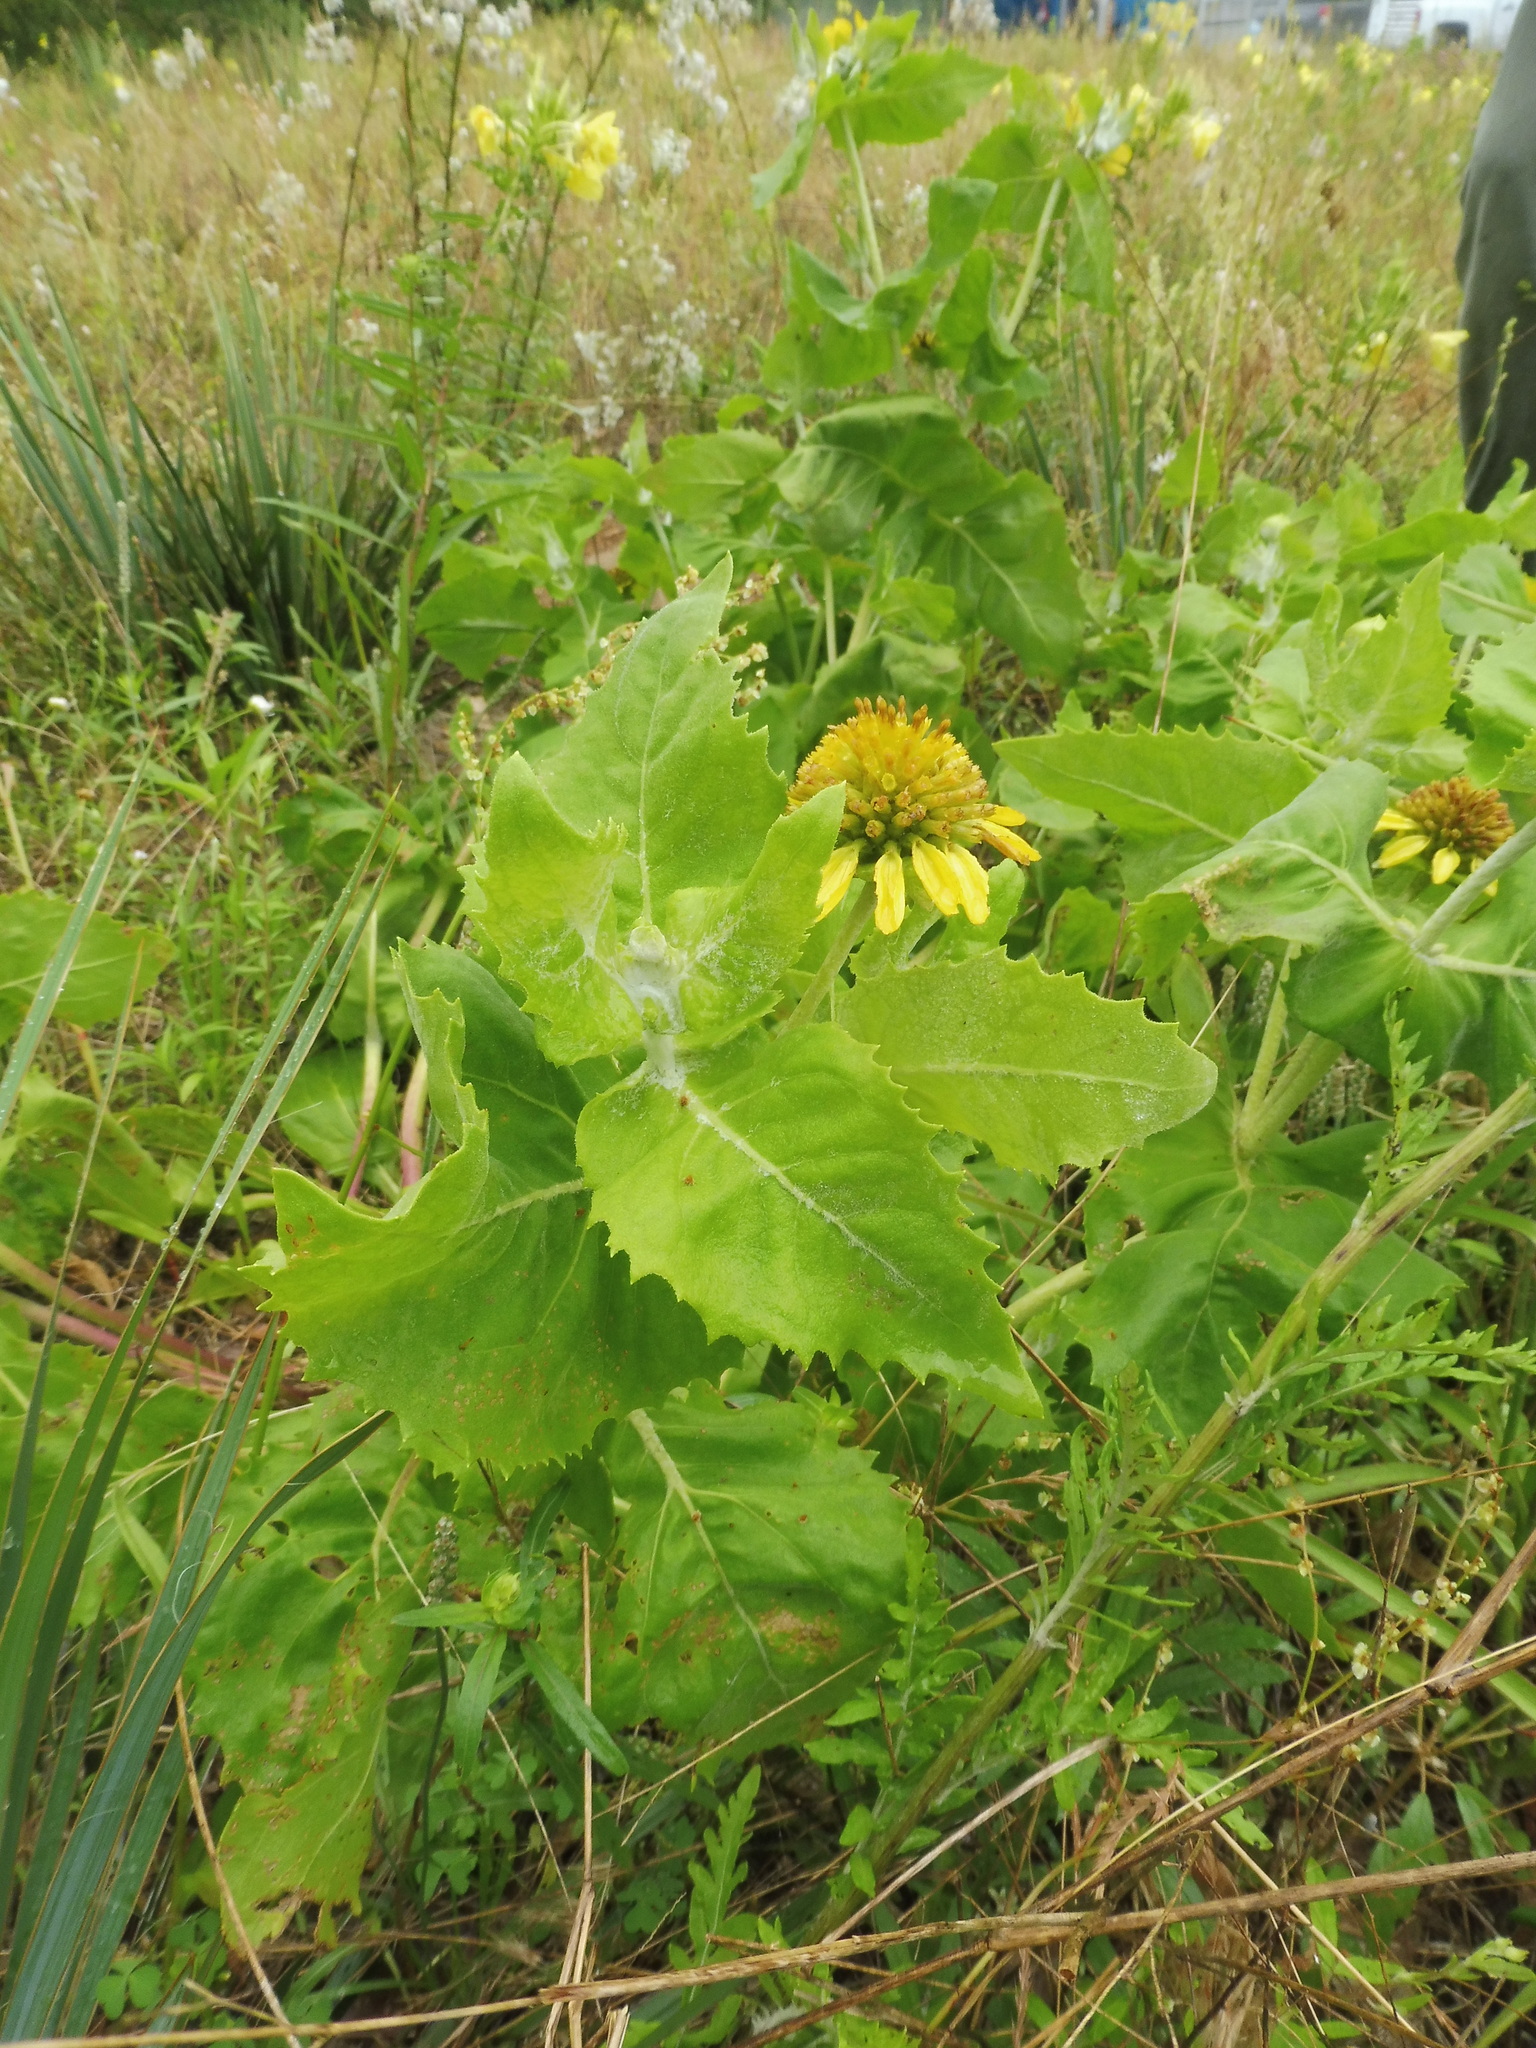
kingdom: Plantae
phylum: Tracheophyta
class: Magnoliopsida
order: Asterales
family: Asteraceae
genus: Tetragonotheca
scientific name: Tetragonotheca ludoviciana
